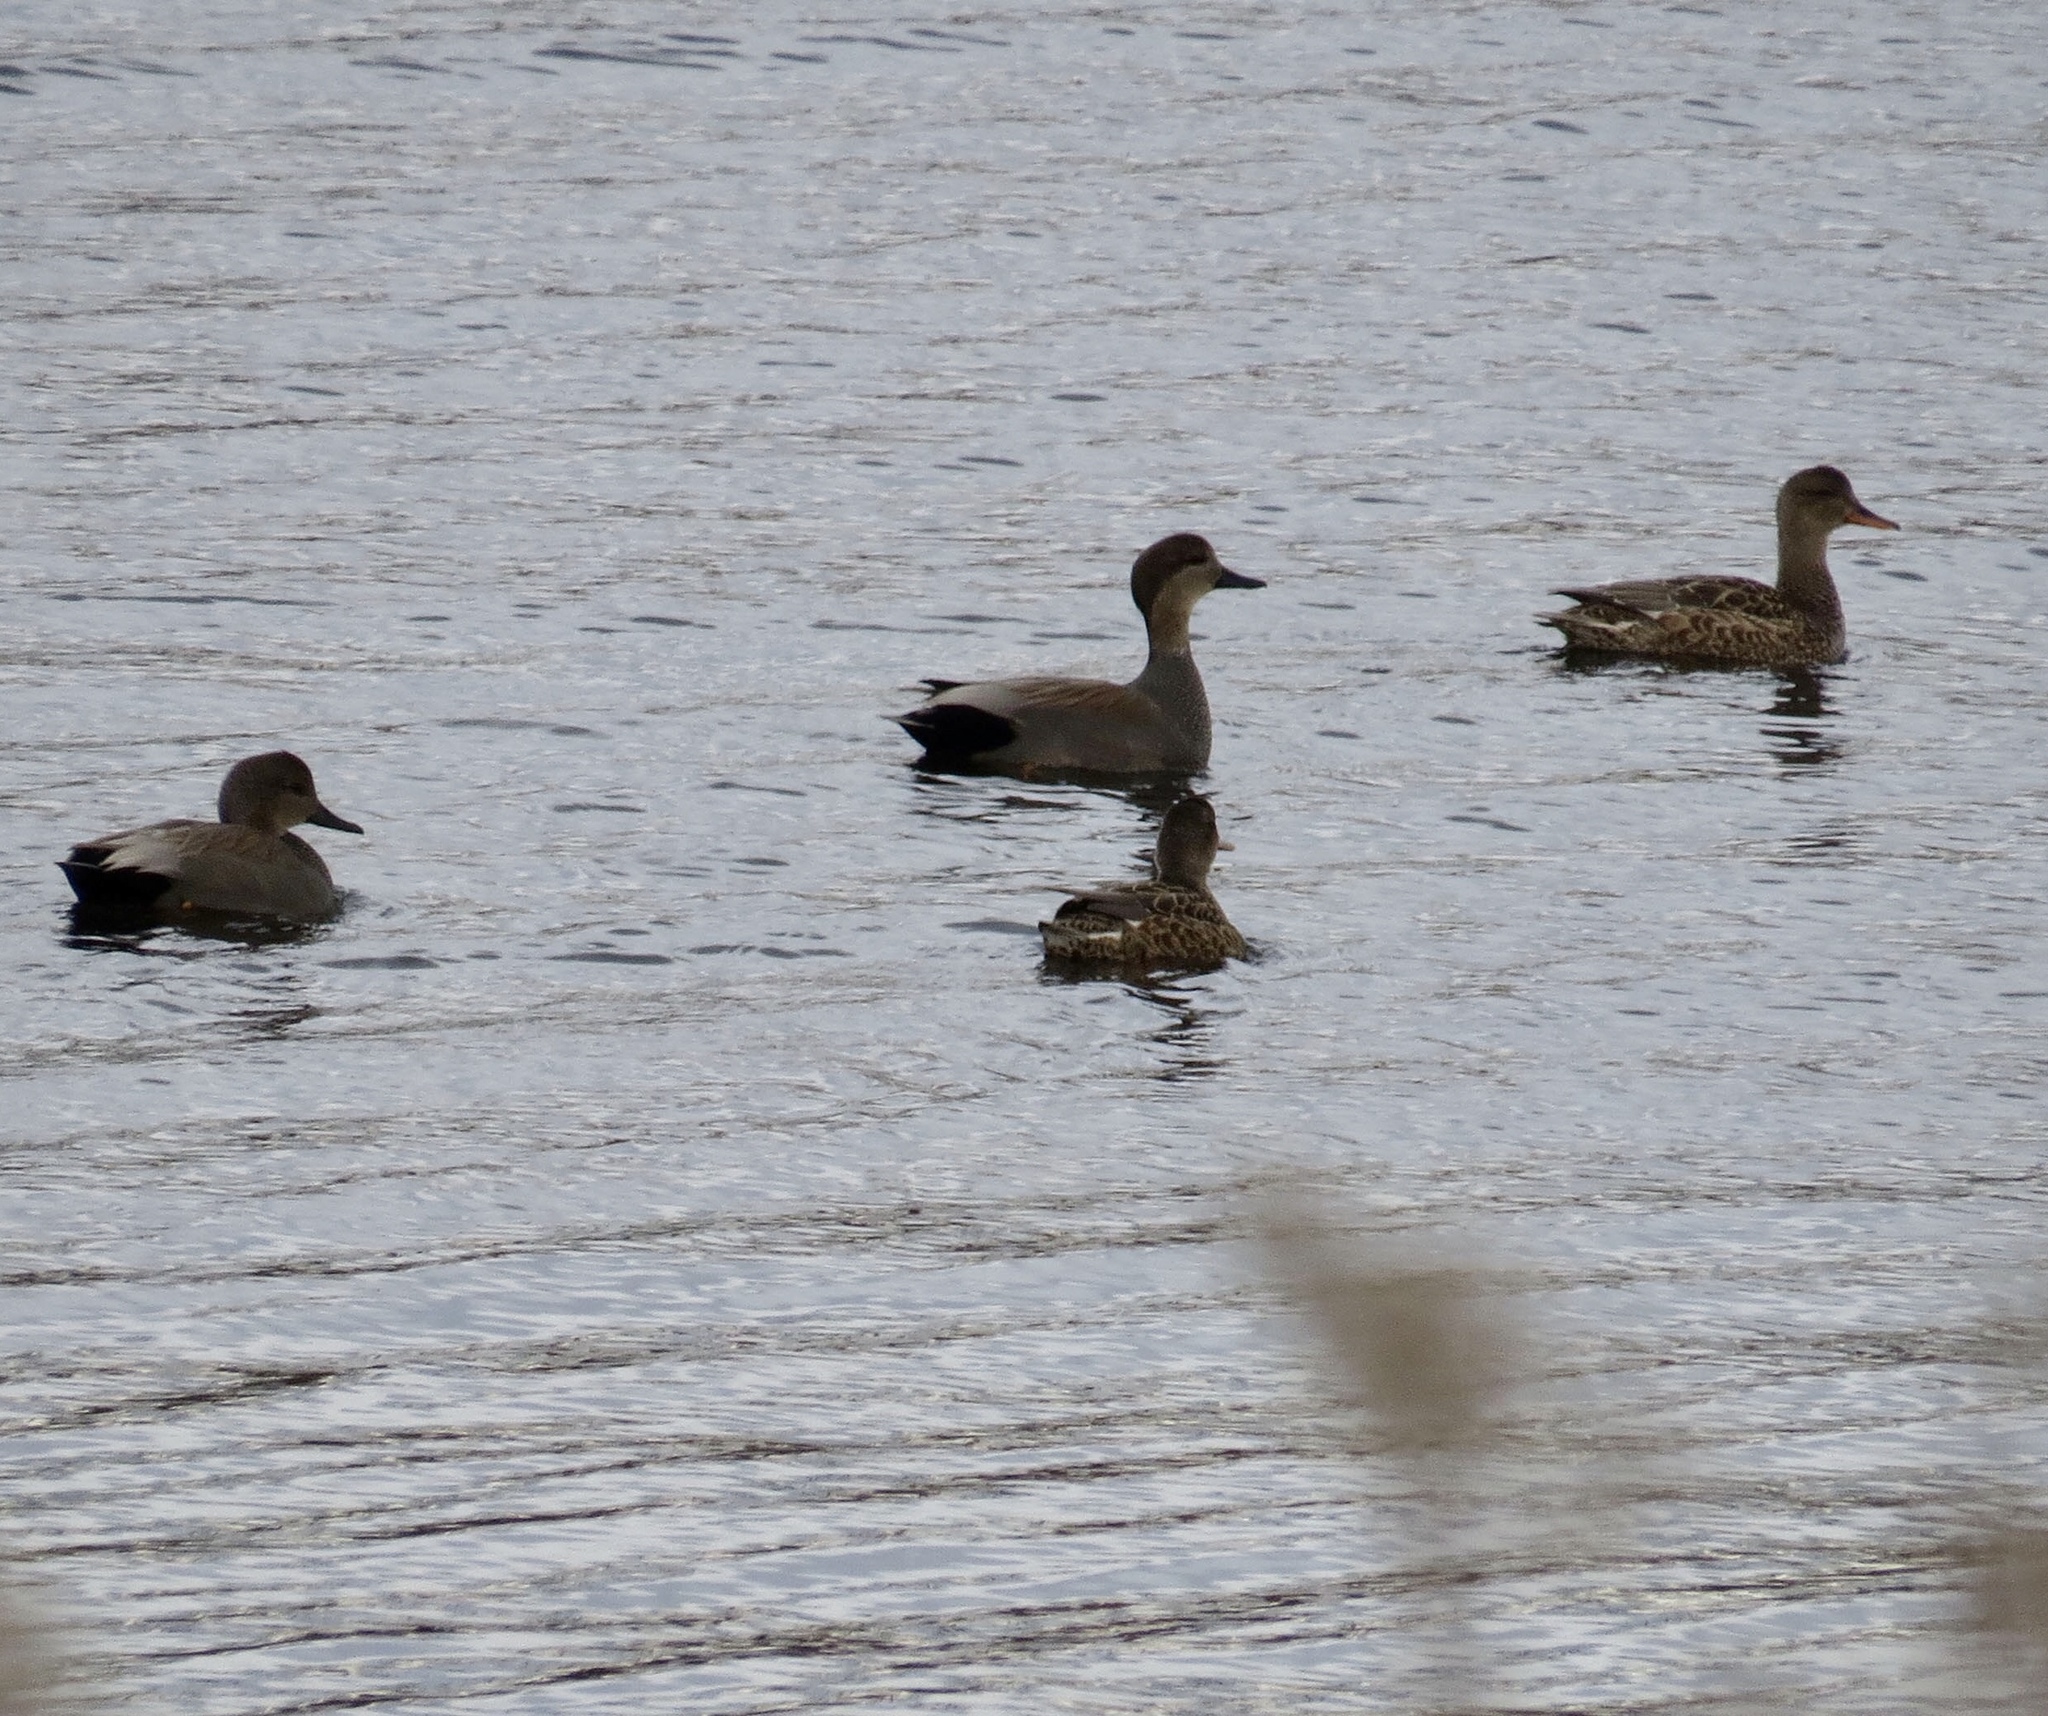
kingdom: Animalia
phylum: Chordata
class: Aves
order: Anseriformes
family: Anatidae
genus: Mareca
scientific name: Mareca strepera
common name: Gadwall
